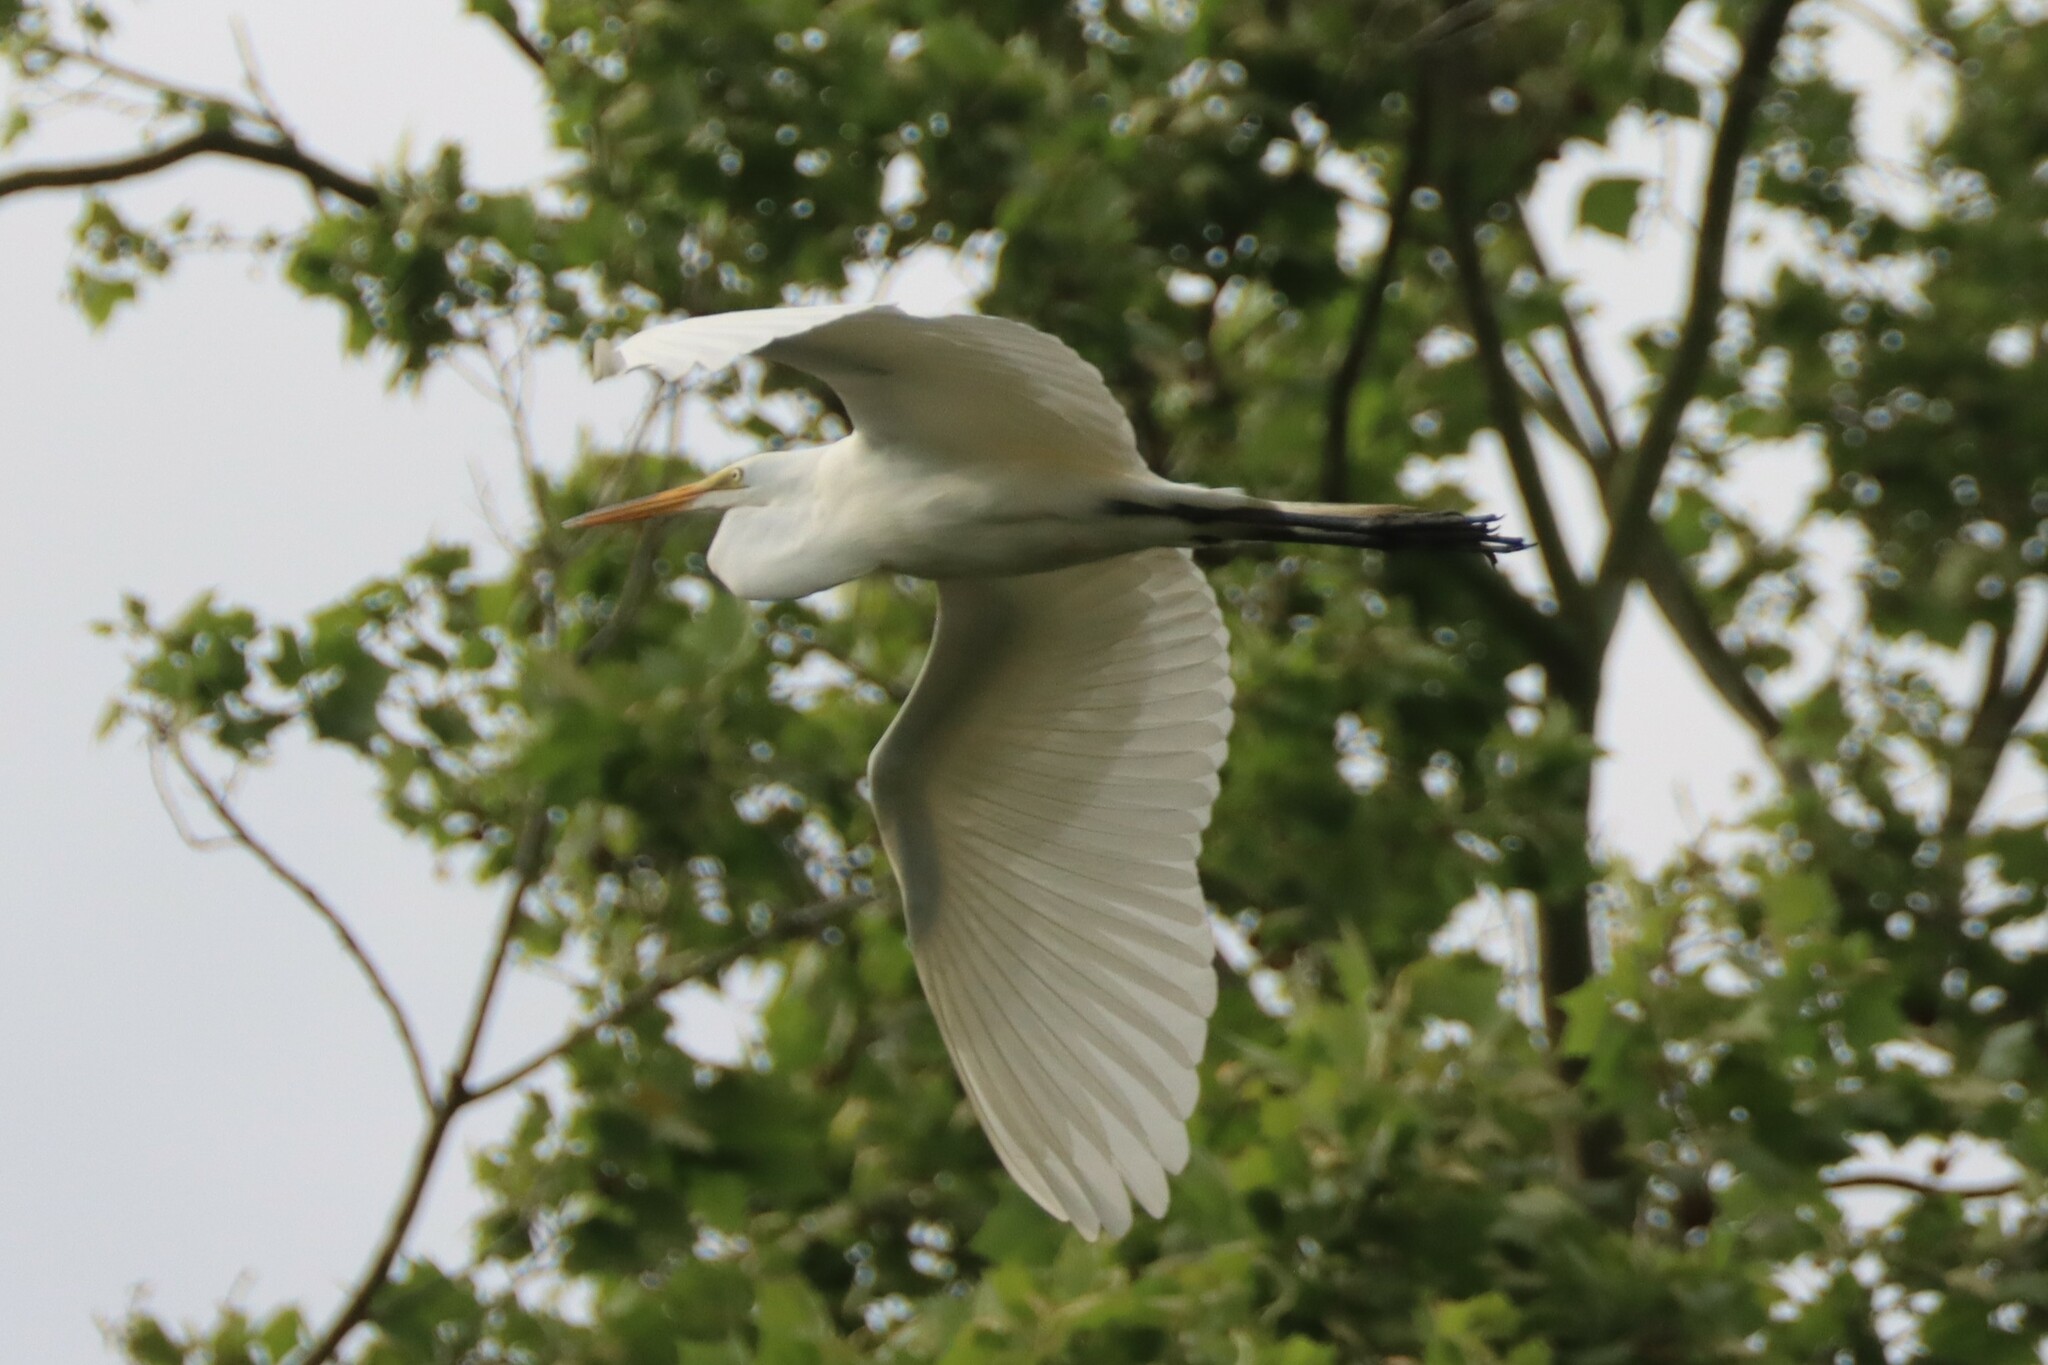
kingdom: Animalia
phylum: Chordata
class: Aves
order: Pelecaniformes
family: Ardeidae
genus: Ardea
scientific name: Ardea alba
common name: Great egret
